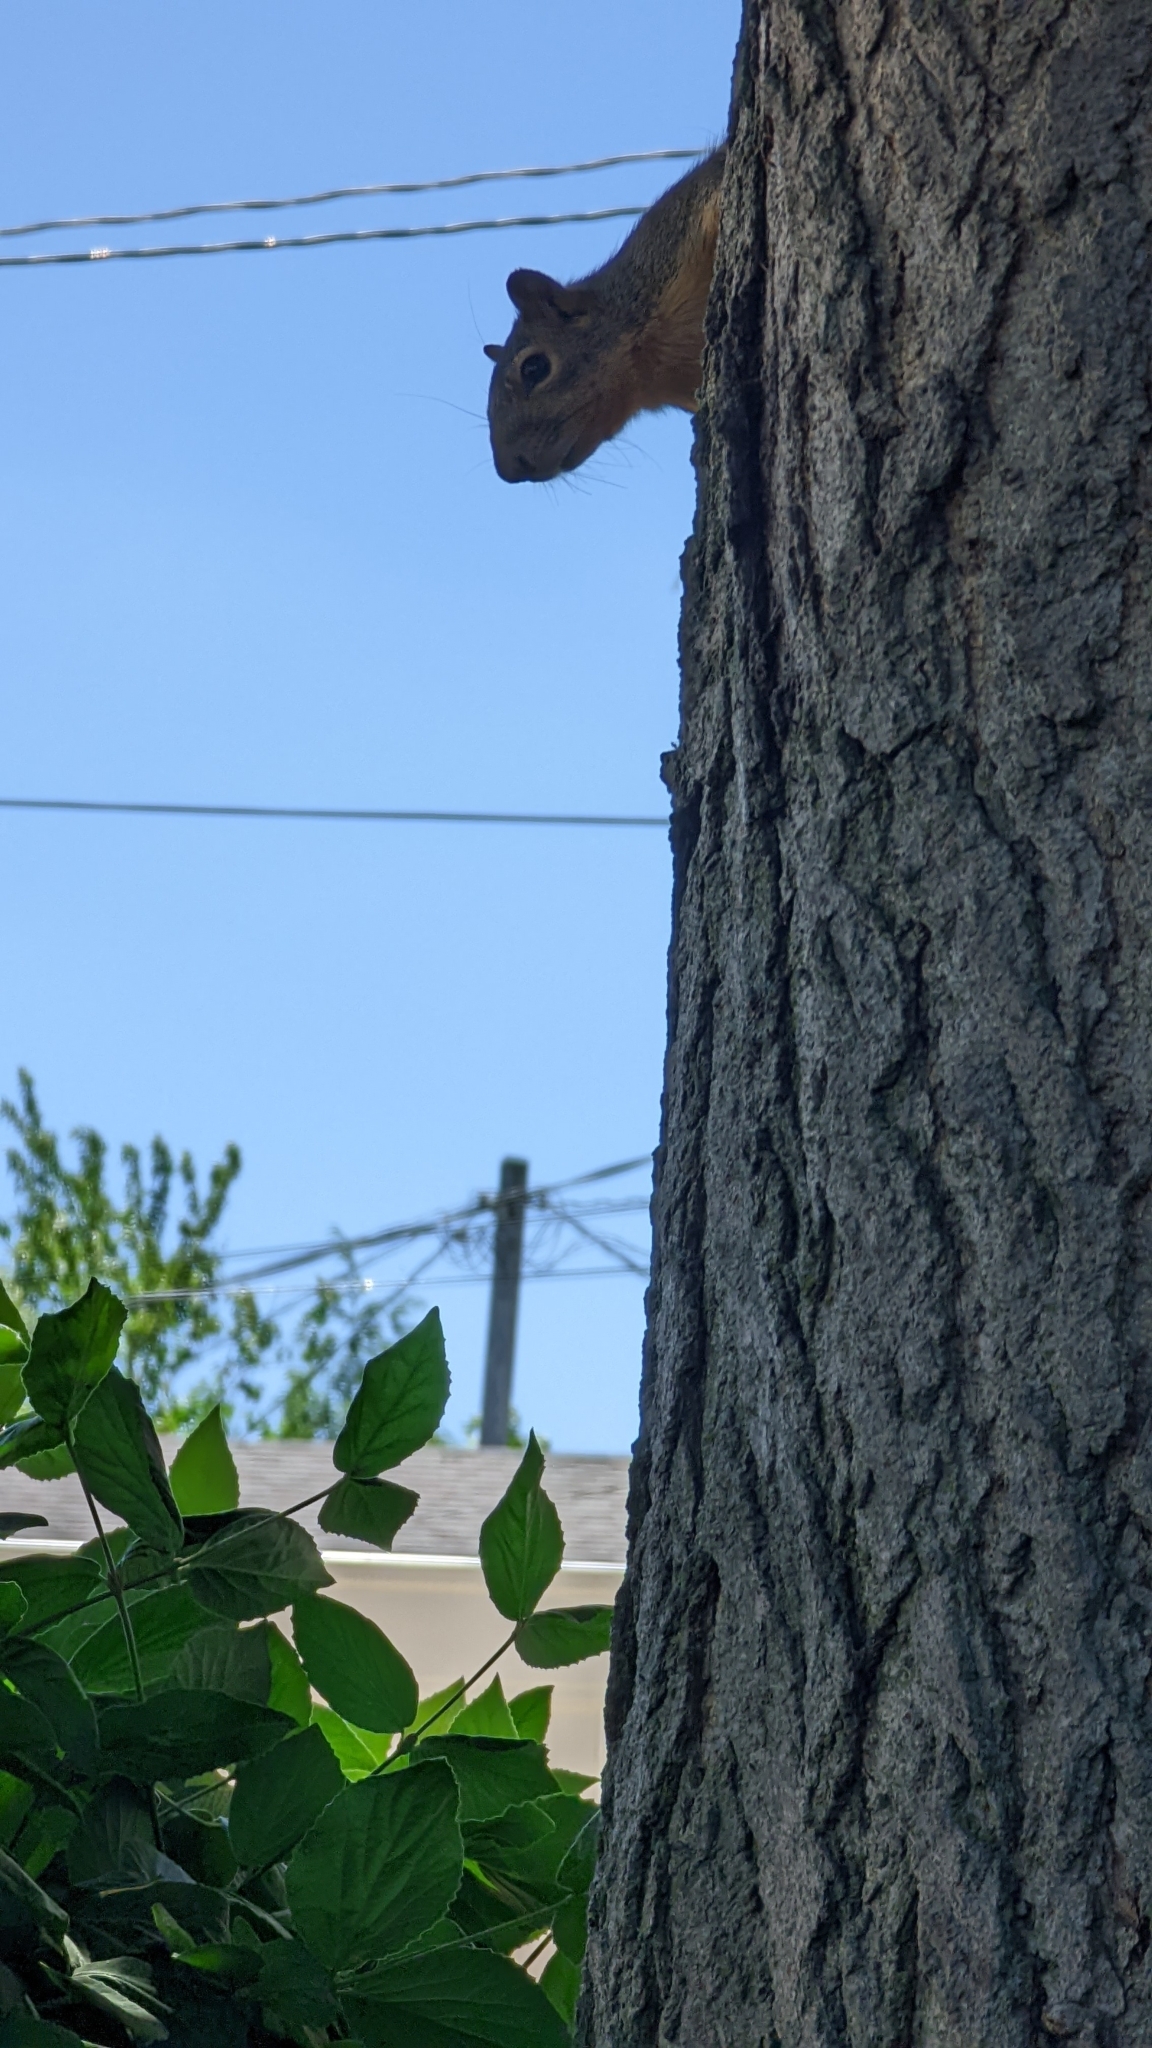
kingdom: Animalia
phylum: Chordata
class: Mammalia
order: Rodentia
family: Sciuridae
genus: Sciurus
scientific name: Sciurus niger
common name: Fox squirrel
